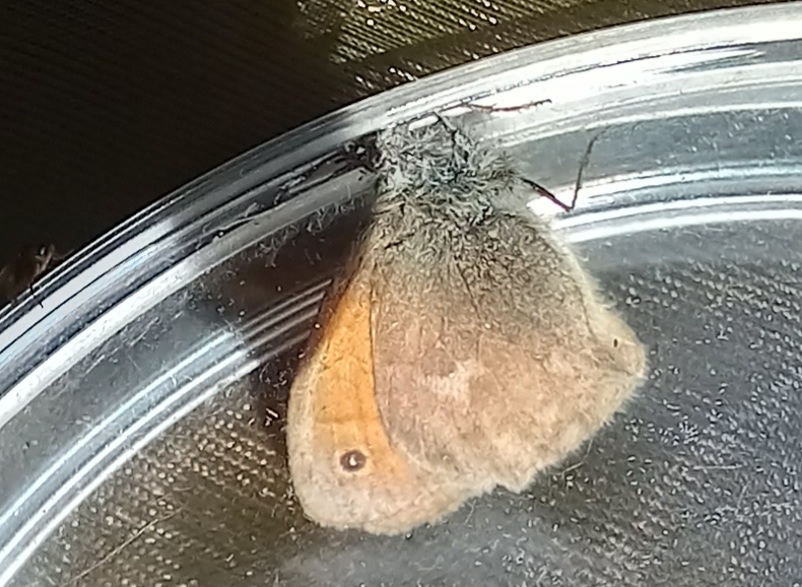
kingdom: Animalia
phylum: Arthropoda
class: Insecta
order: Lepidoptera
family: Nymphalidae
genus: Coenonympha
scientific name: Coenonympha pamphilus
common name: Small heath
